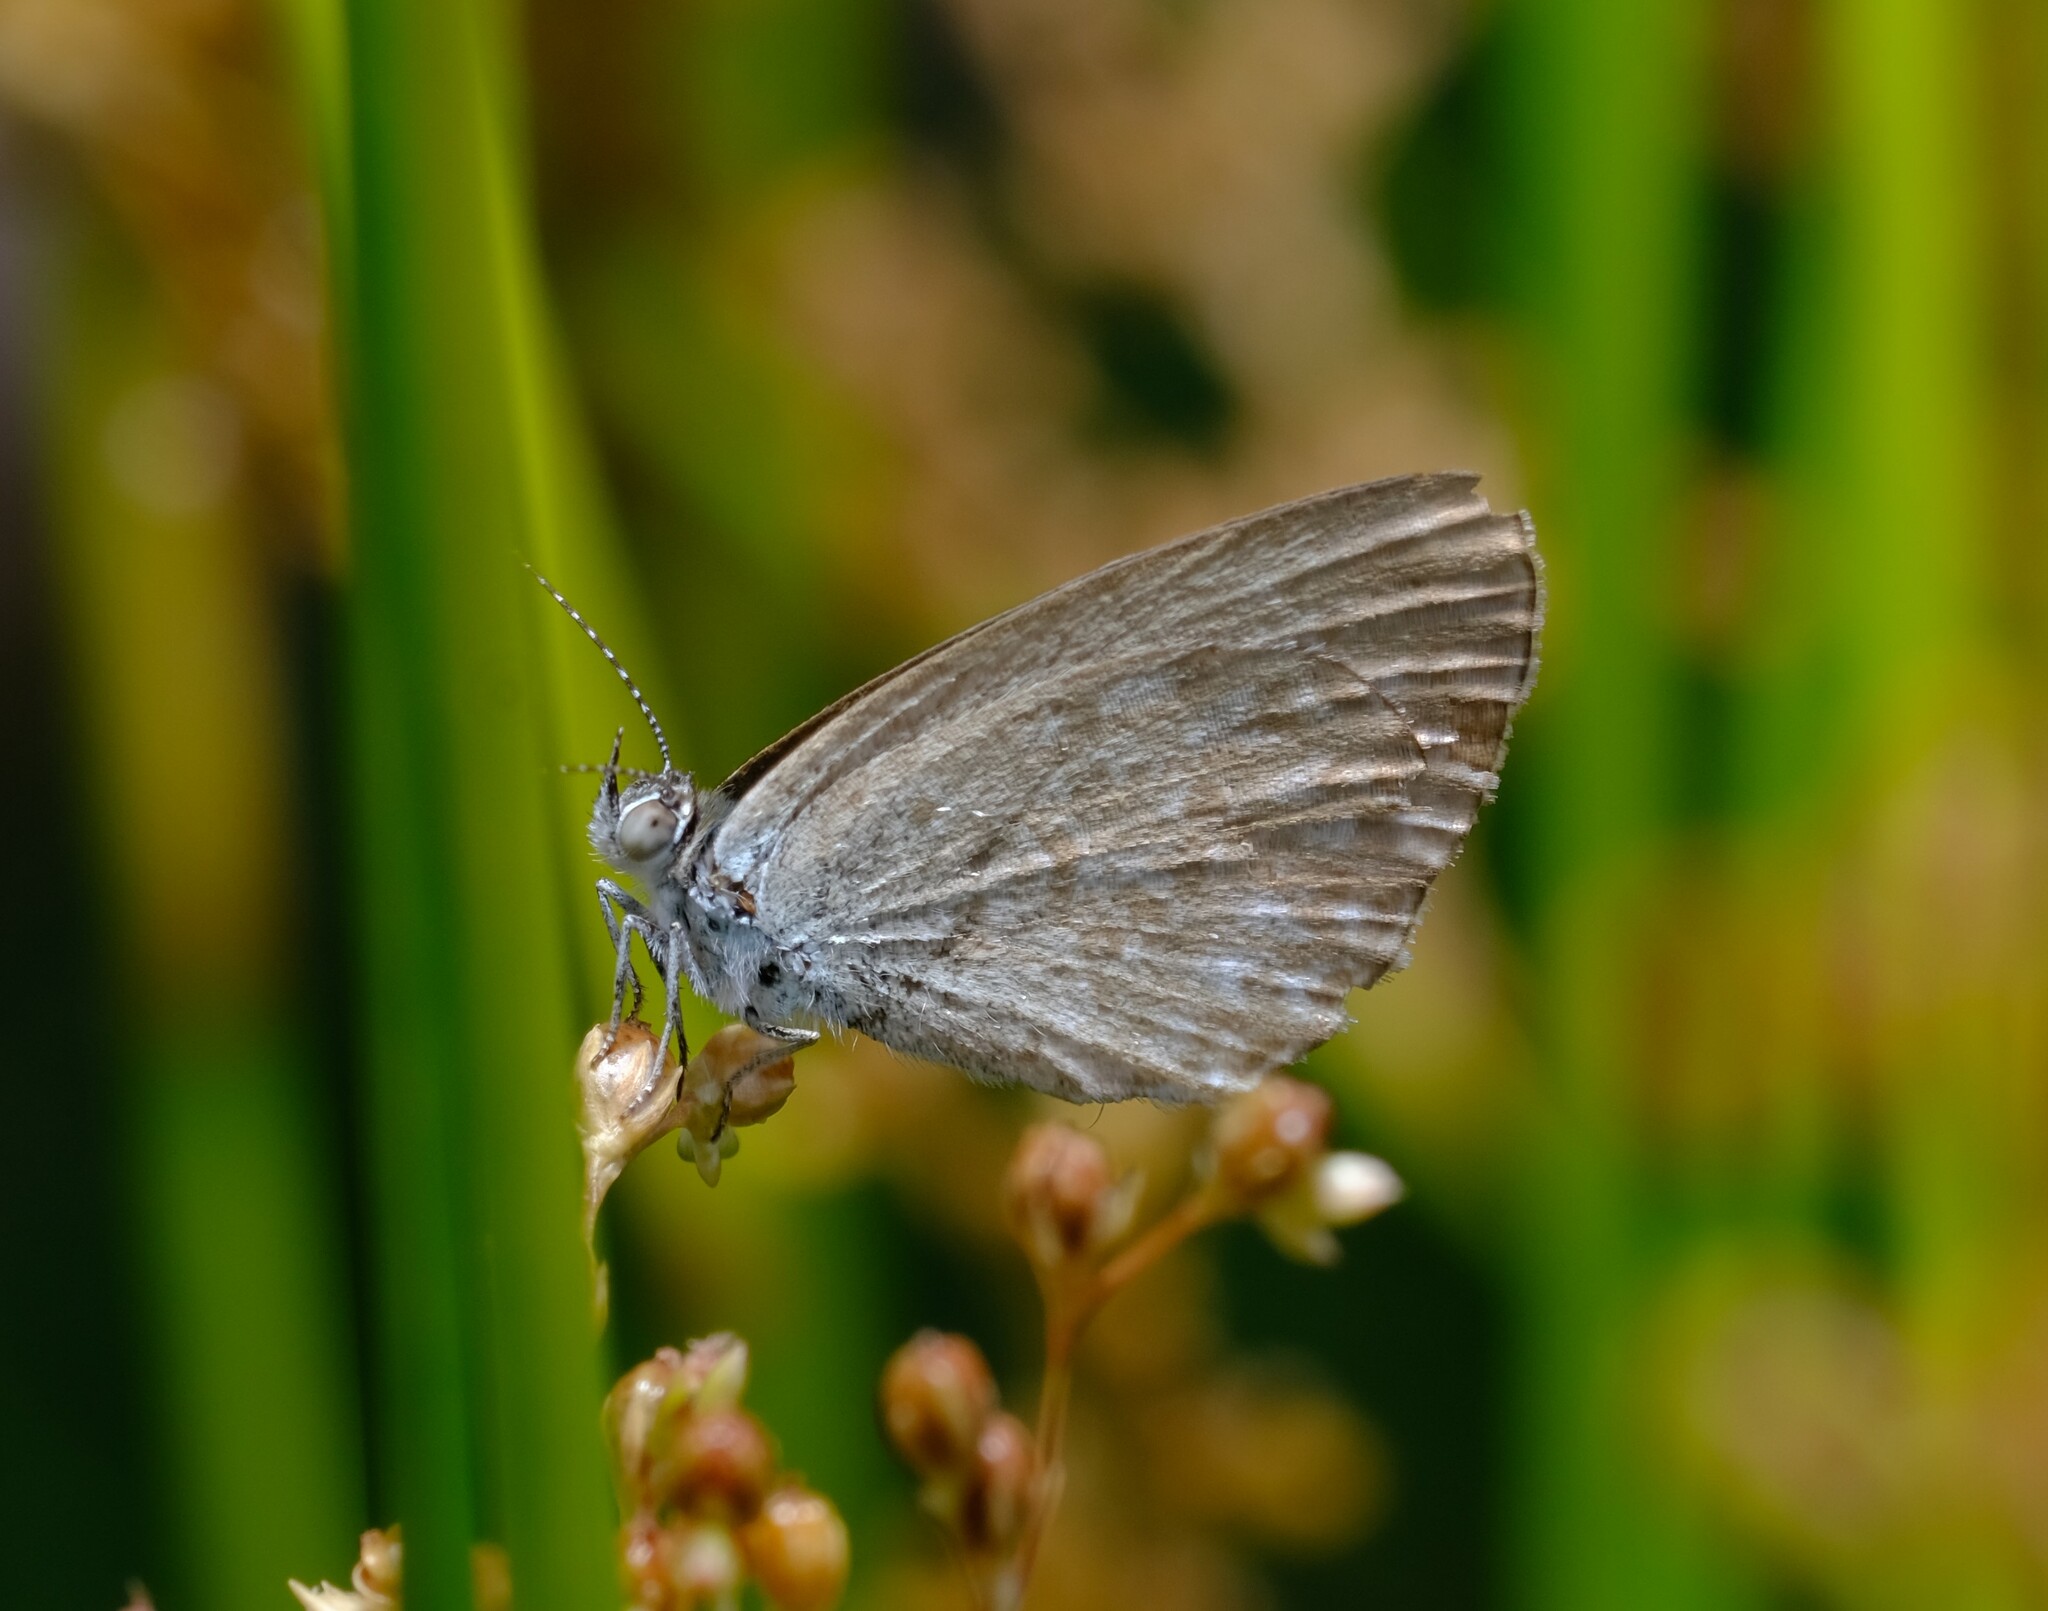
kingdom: Animalia
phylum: Arthropoda
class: Insecta
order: Lepidoptera
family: Lycaenidae
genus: Zizina
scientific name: Zizina otis
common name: Lesser grass blue
